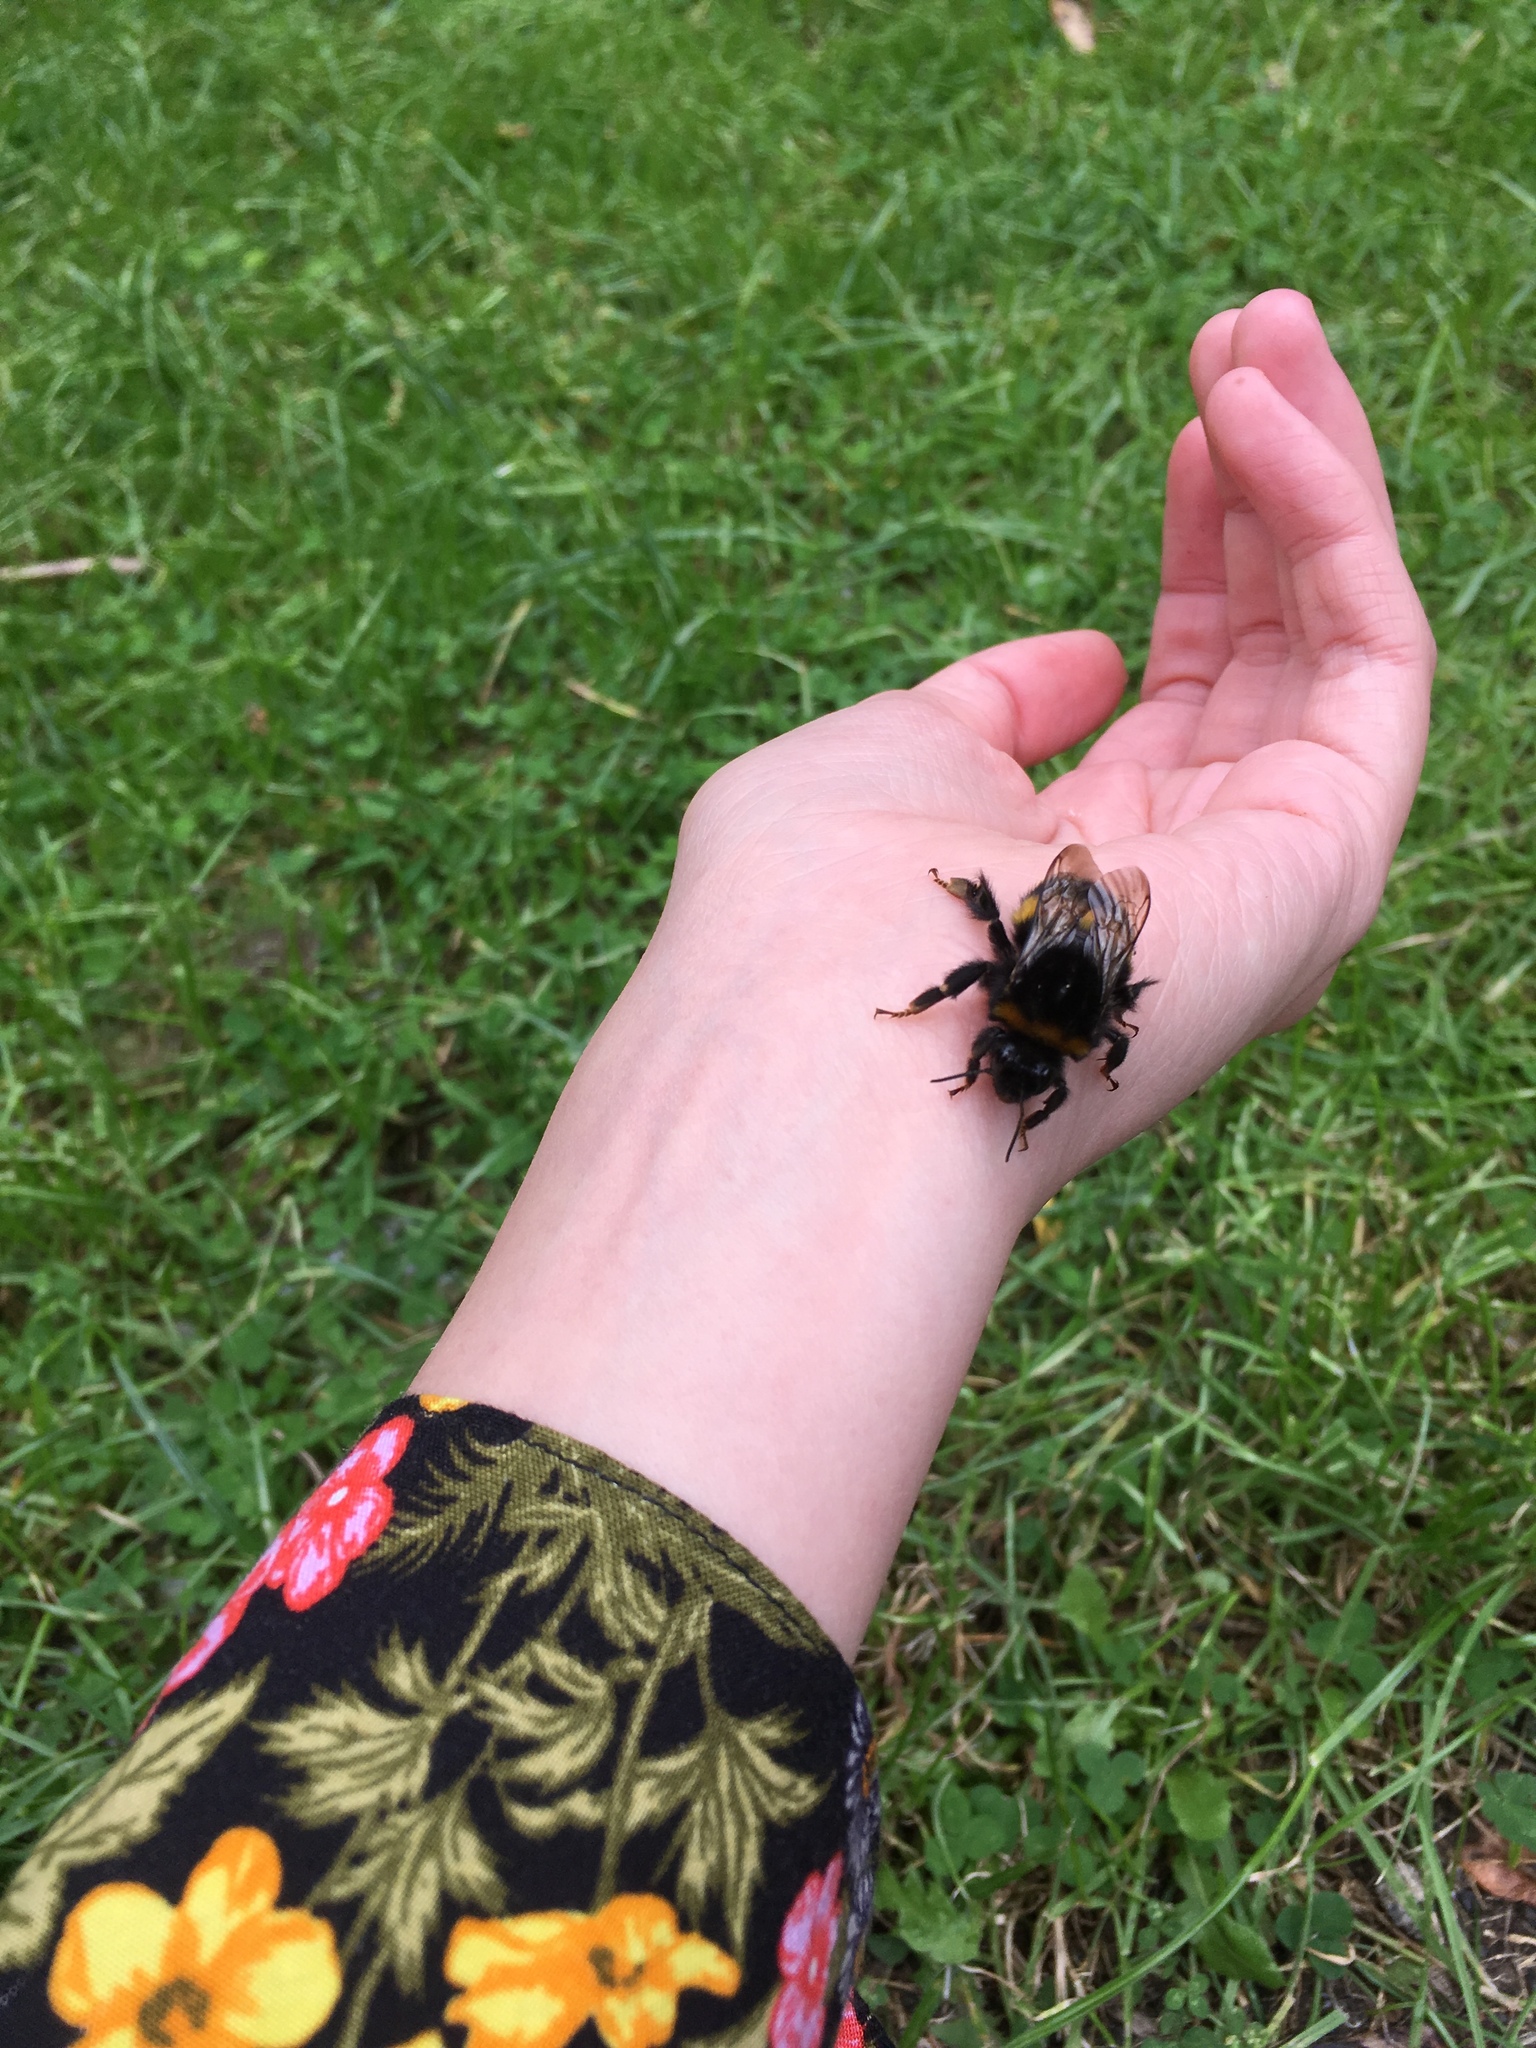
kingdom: Animalia
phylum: Arthropoda
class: Insecta
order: Hymenoptera
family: Apidae
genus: Bombus
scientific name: Bombus terrestris
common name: Buff-tailed bumblebee
